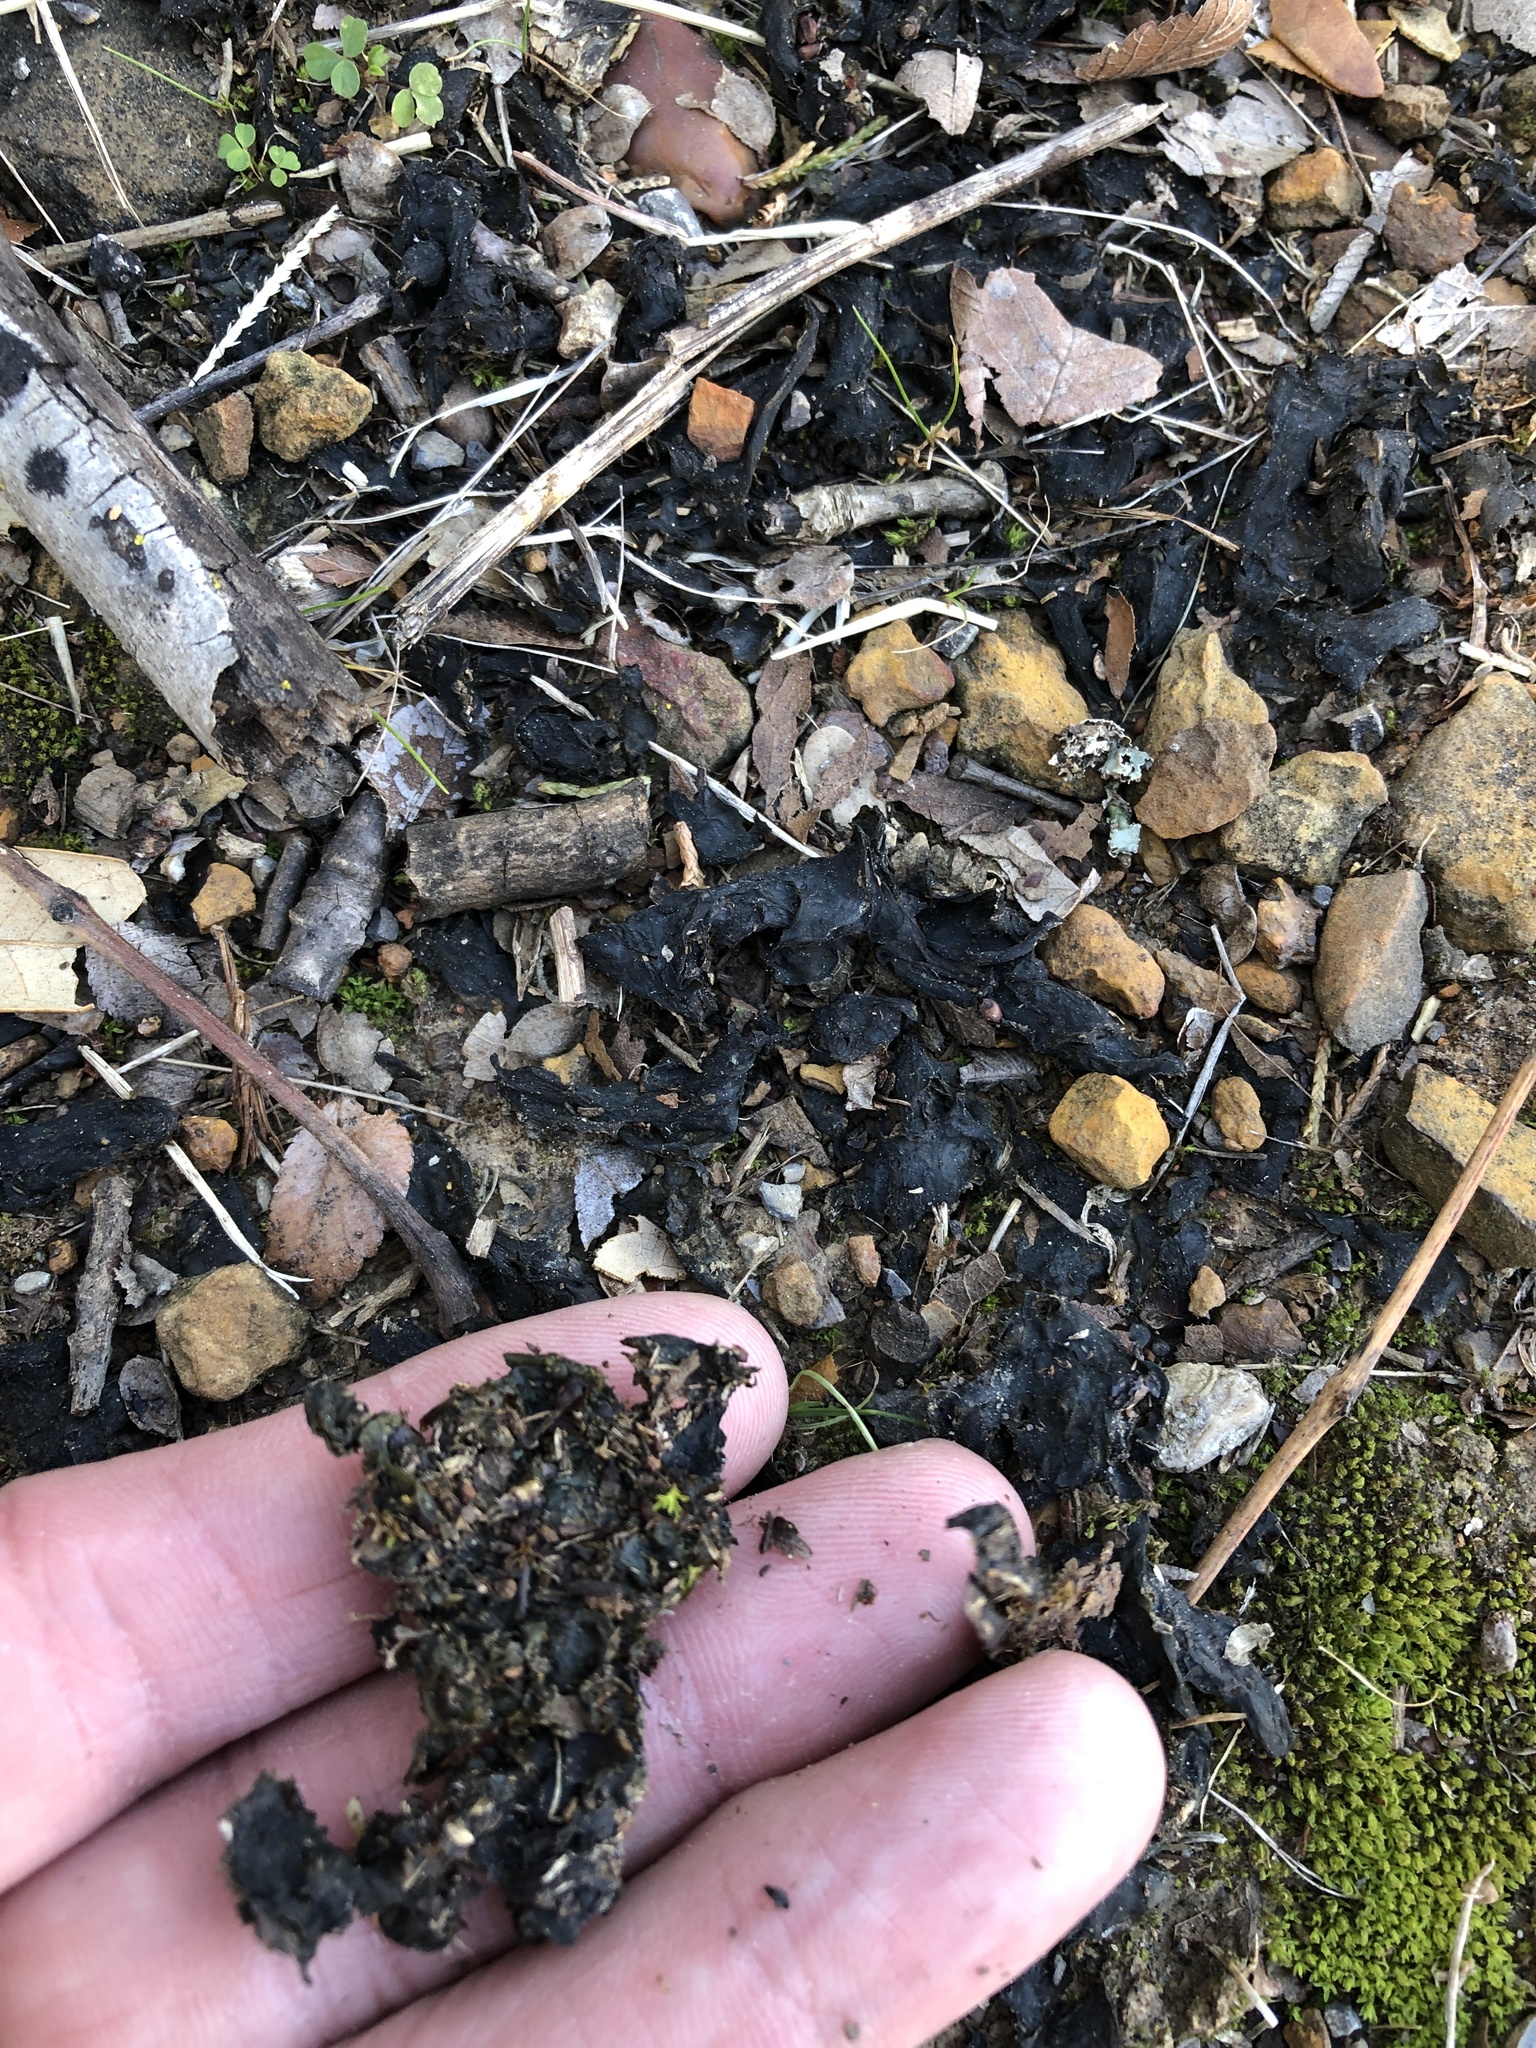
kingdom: Bacteria
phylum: Cyanobacteria
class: Cyanobacteriia
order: Cyanobacteriales
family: Nostocaceae
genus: Nostoc
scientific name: Nostoc commune
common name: Star jelly
